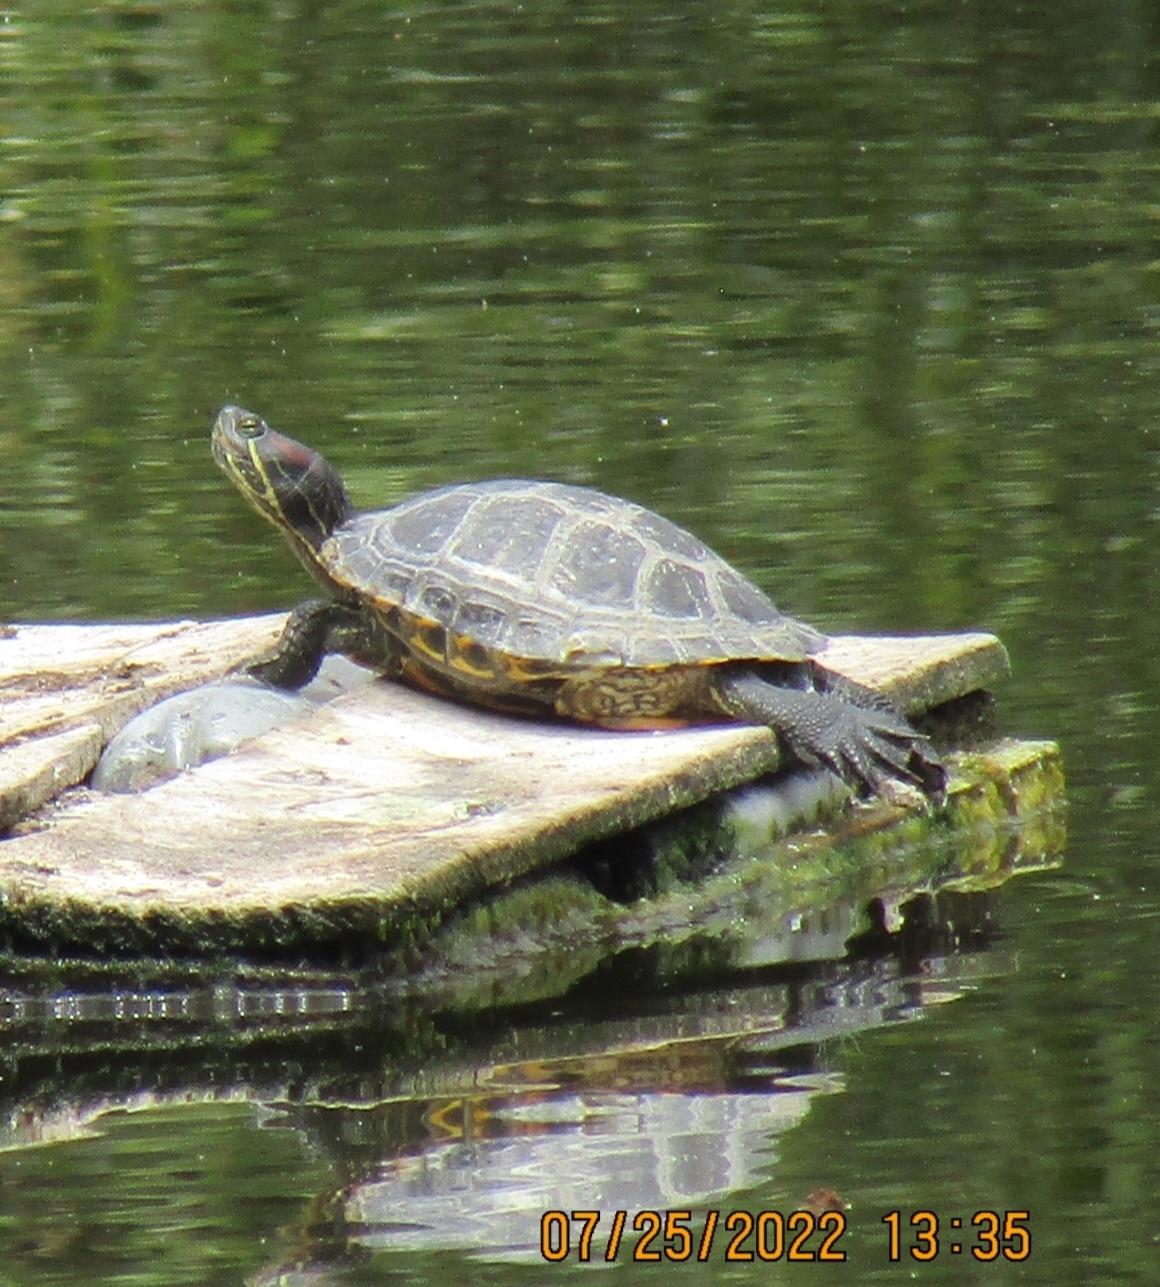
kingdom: Animalia
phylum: Chordata
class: Testudines
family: Emydidae
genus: Trachemys
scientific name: Trachemys scripta
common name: Slider
